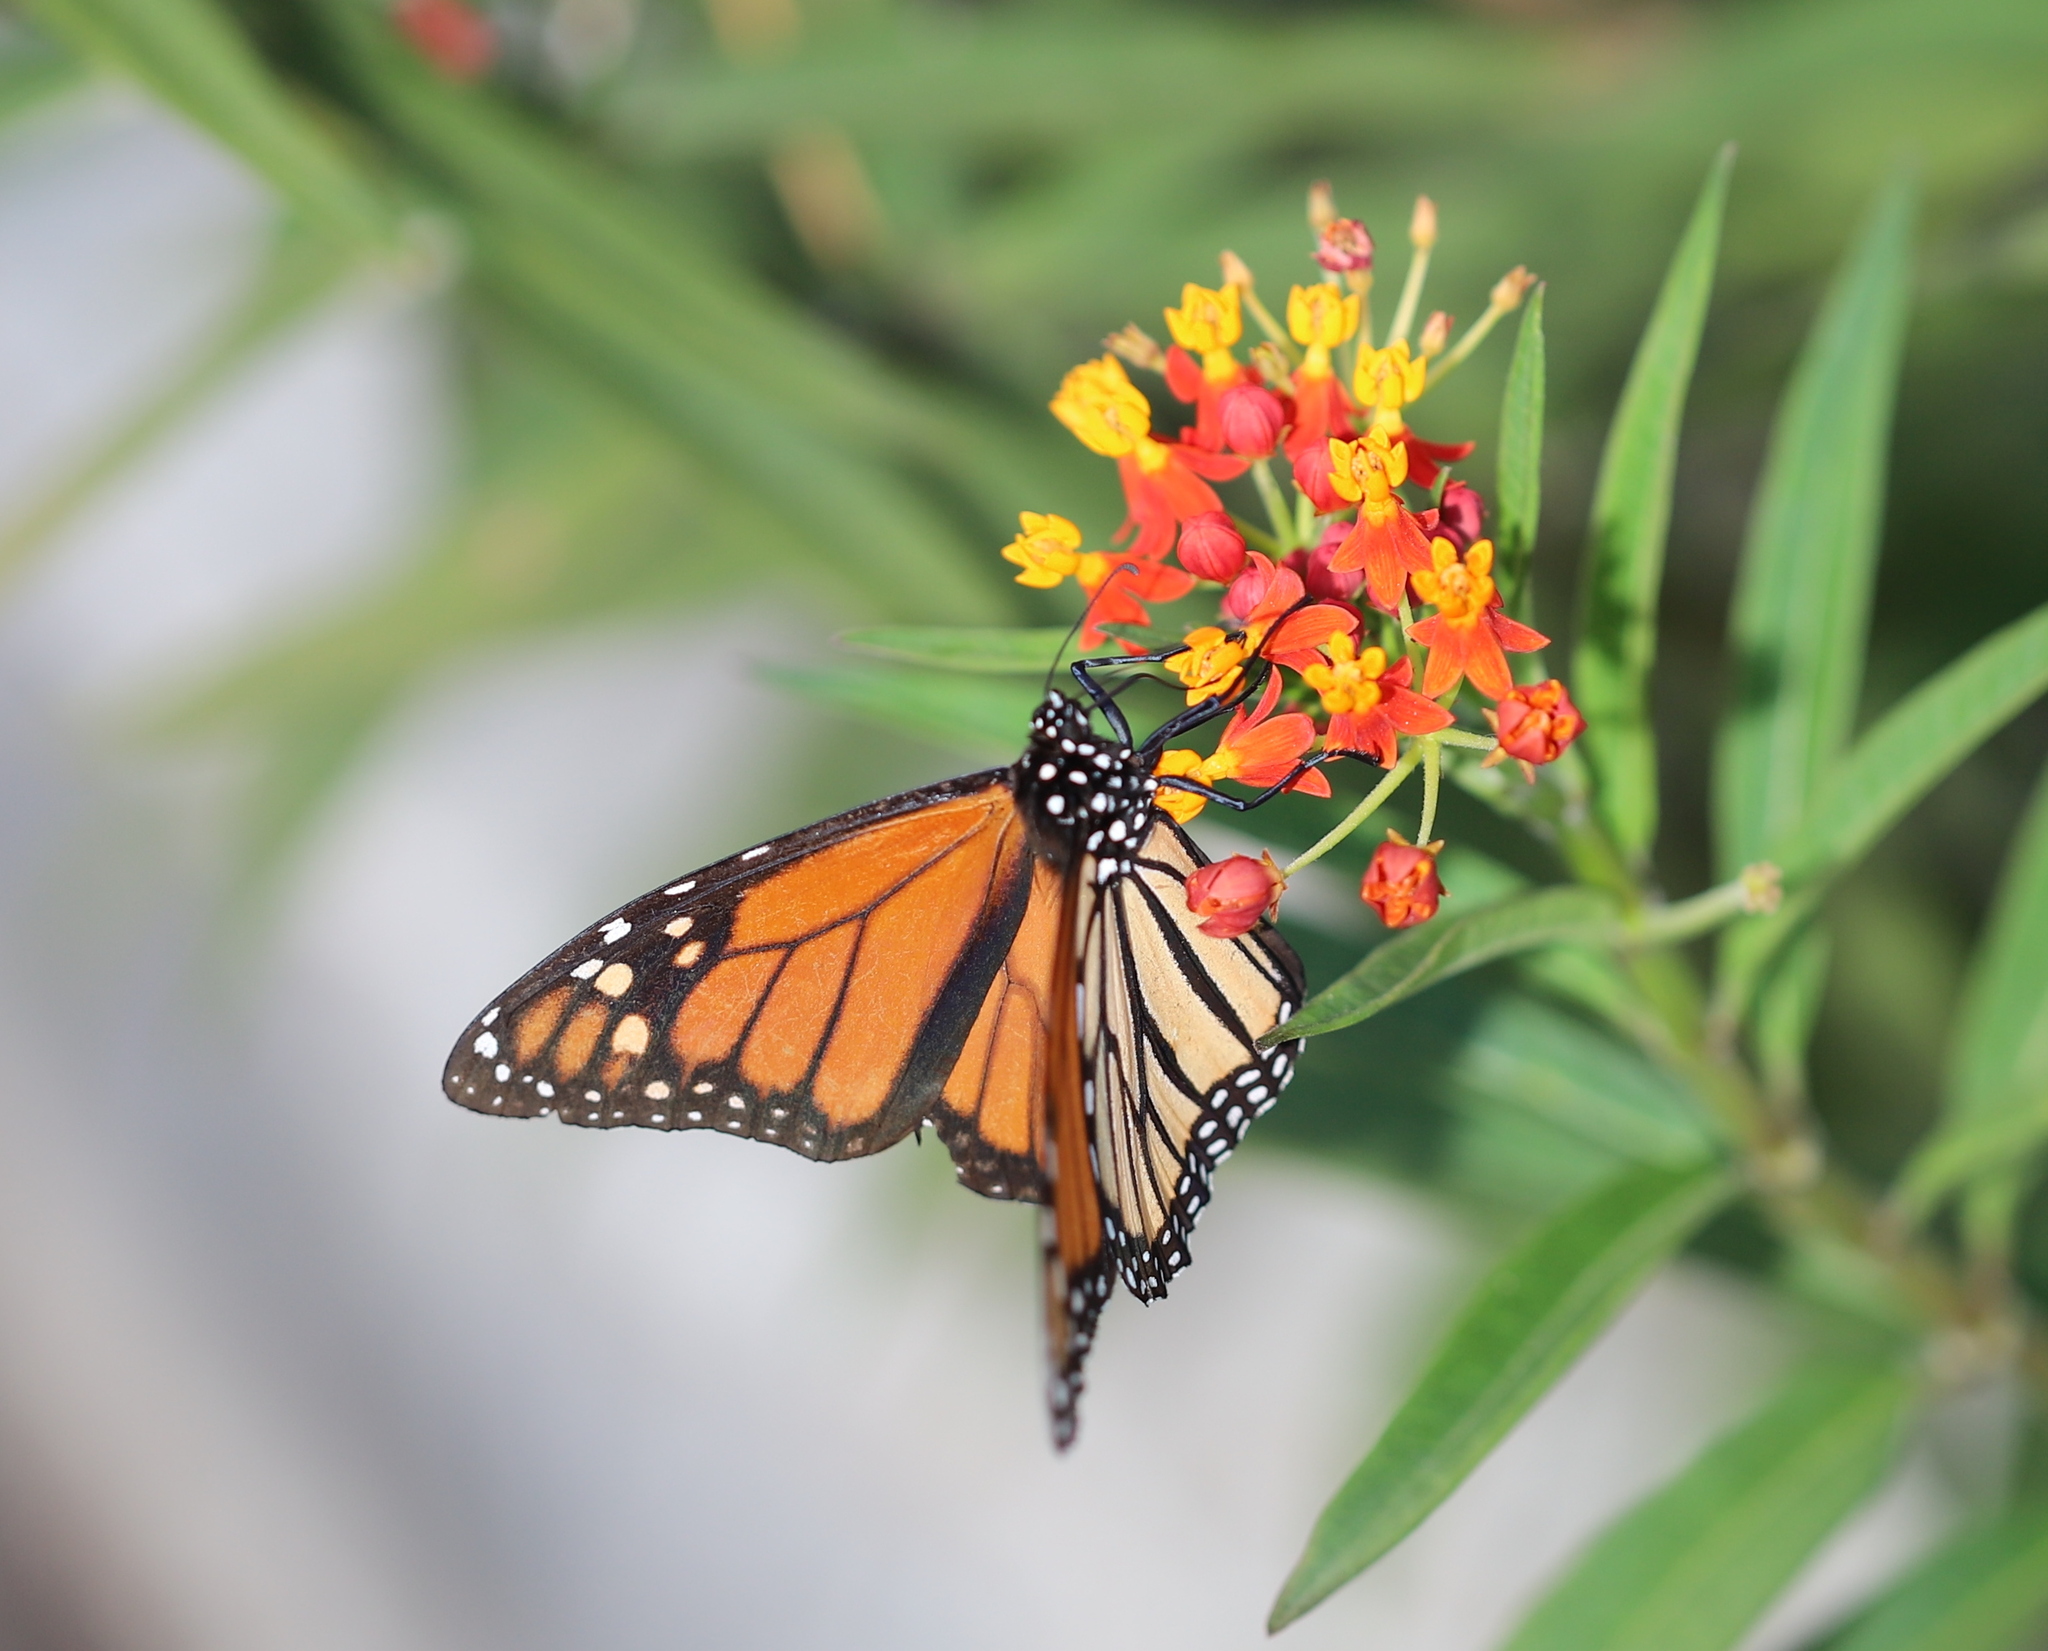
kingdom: Animalia
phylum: Arthropoda
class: Insecta
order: Lepidoptera
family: Nymphalidae
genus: Danaus
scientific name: Danaus plexippus
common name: Monarch
